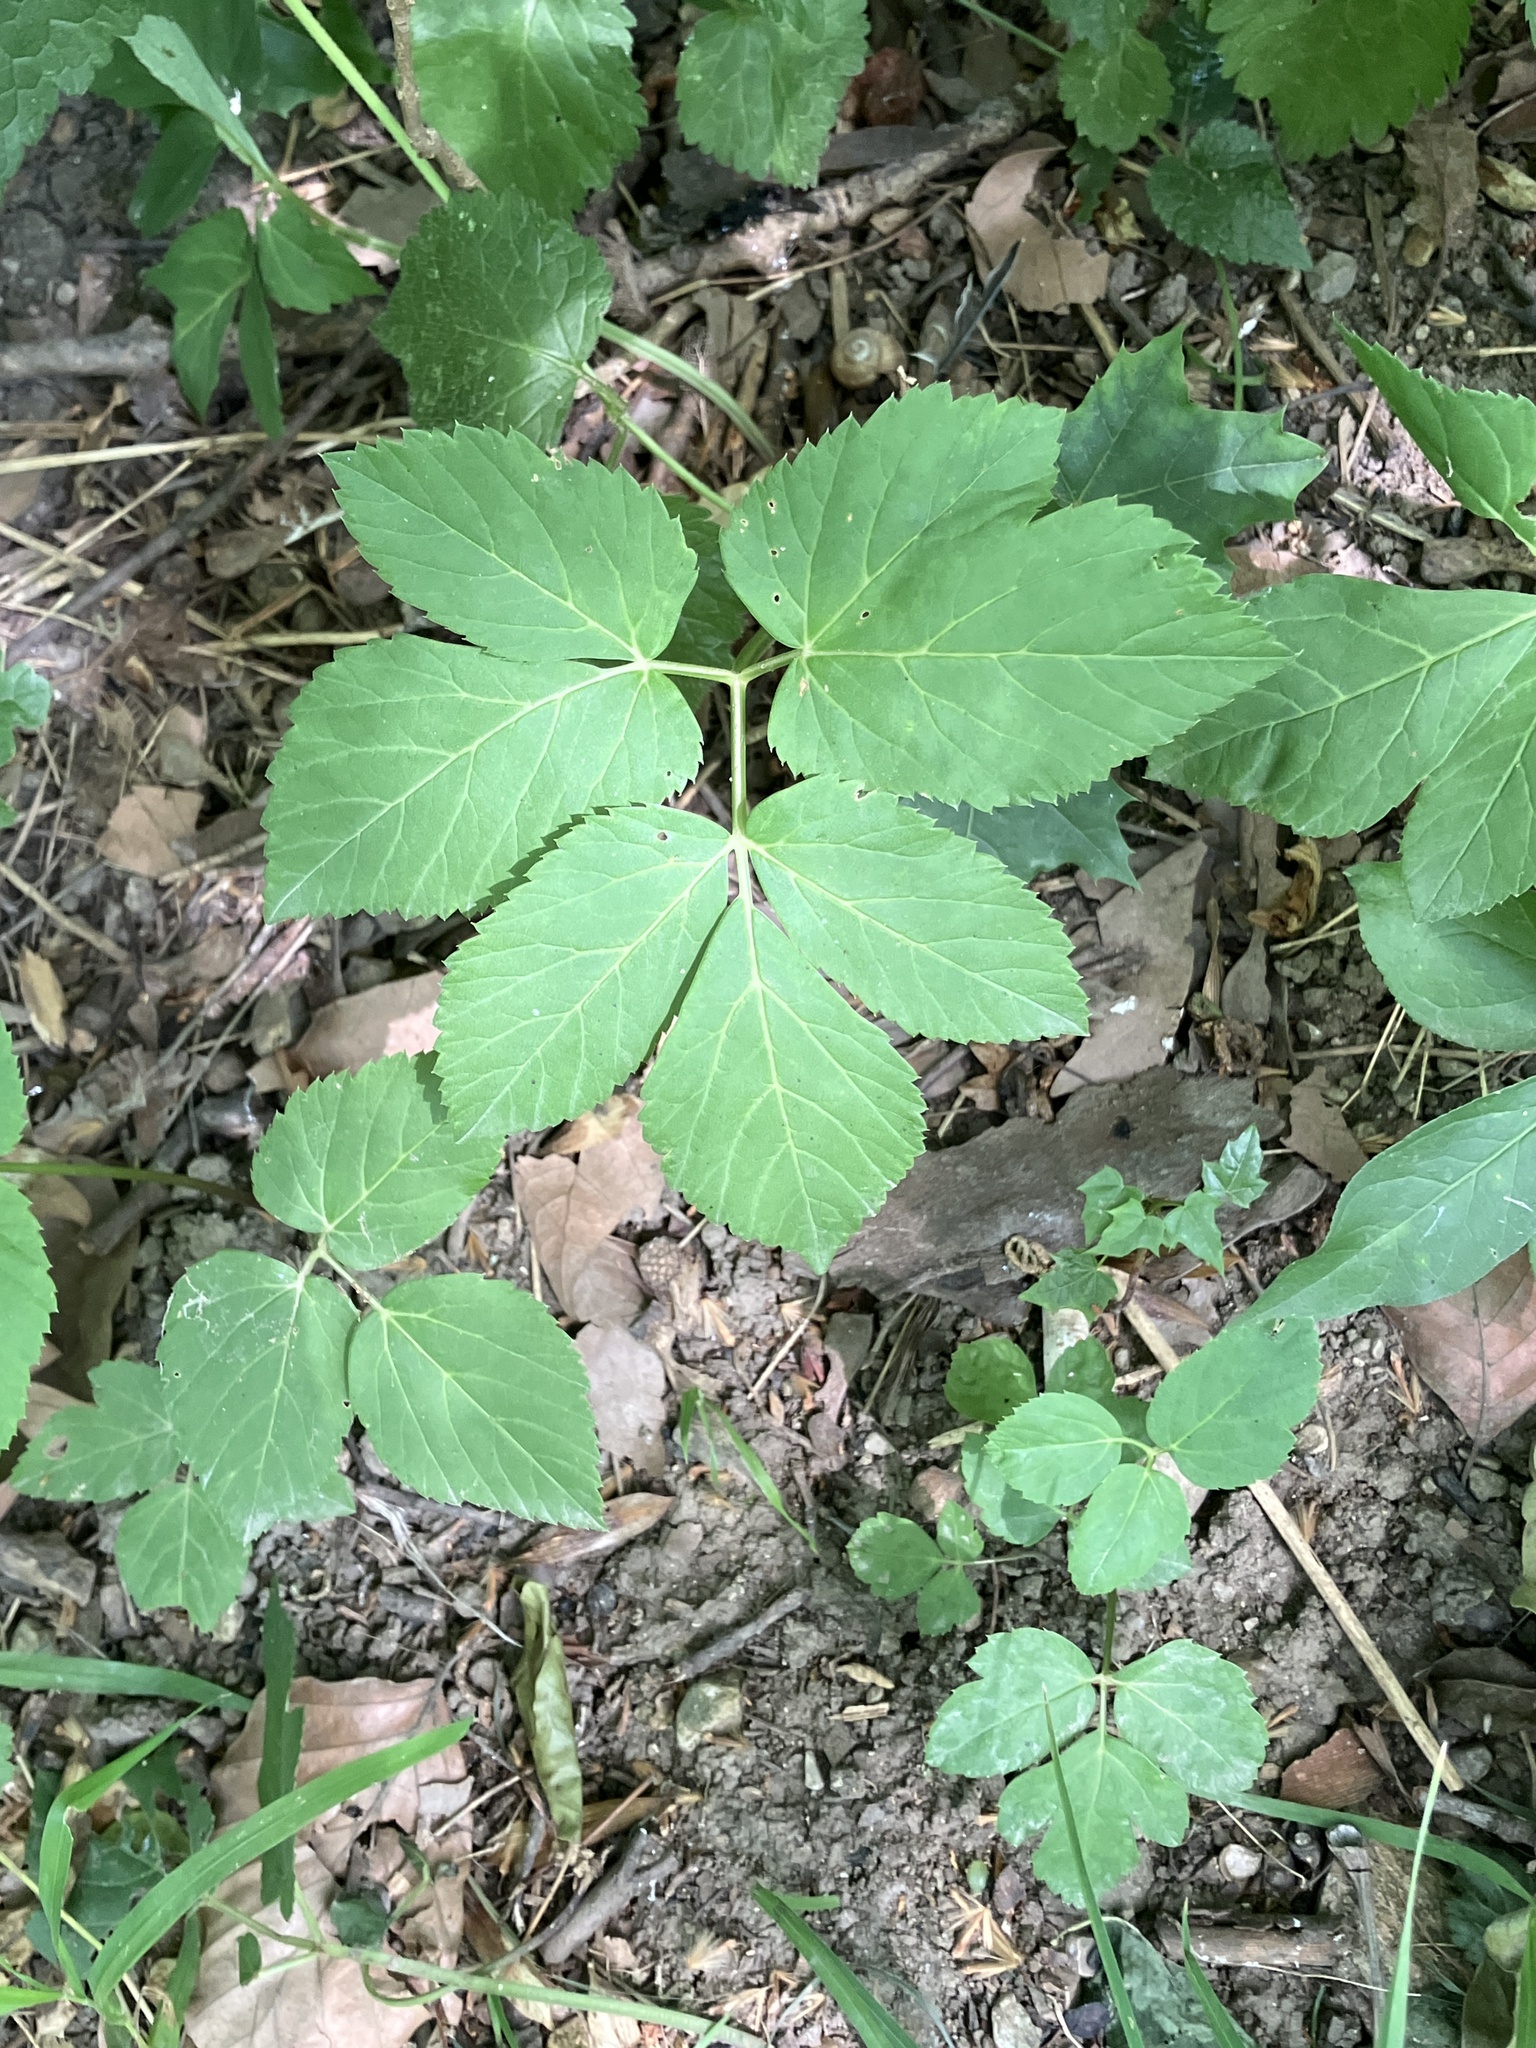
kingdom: Plantae
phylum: Tracheophyta
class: Magnoliopsida
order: Apiales
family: Apiaceae
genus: Aegopodium
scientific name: Aegopodium podagraria
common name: Ground-elder
